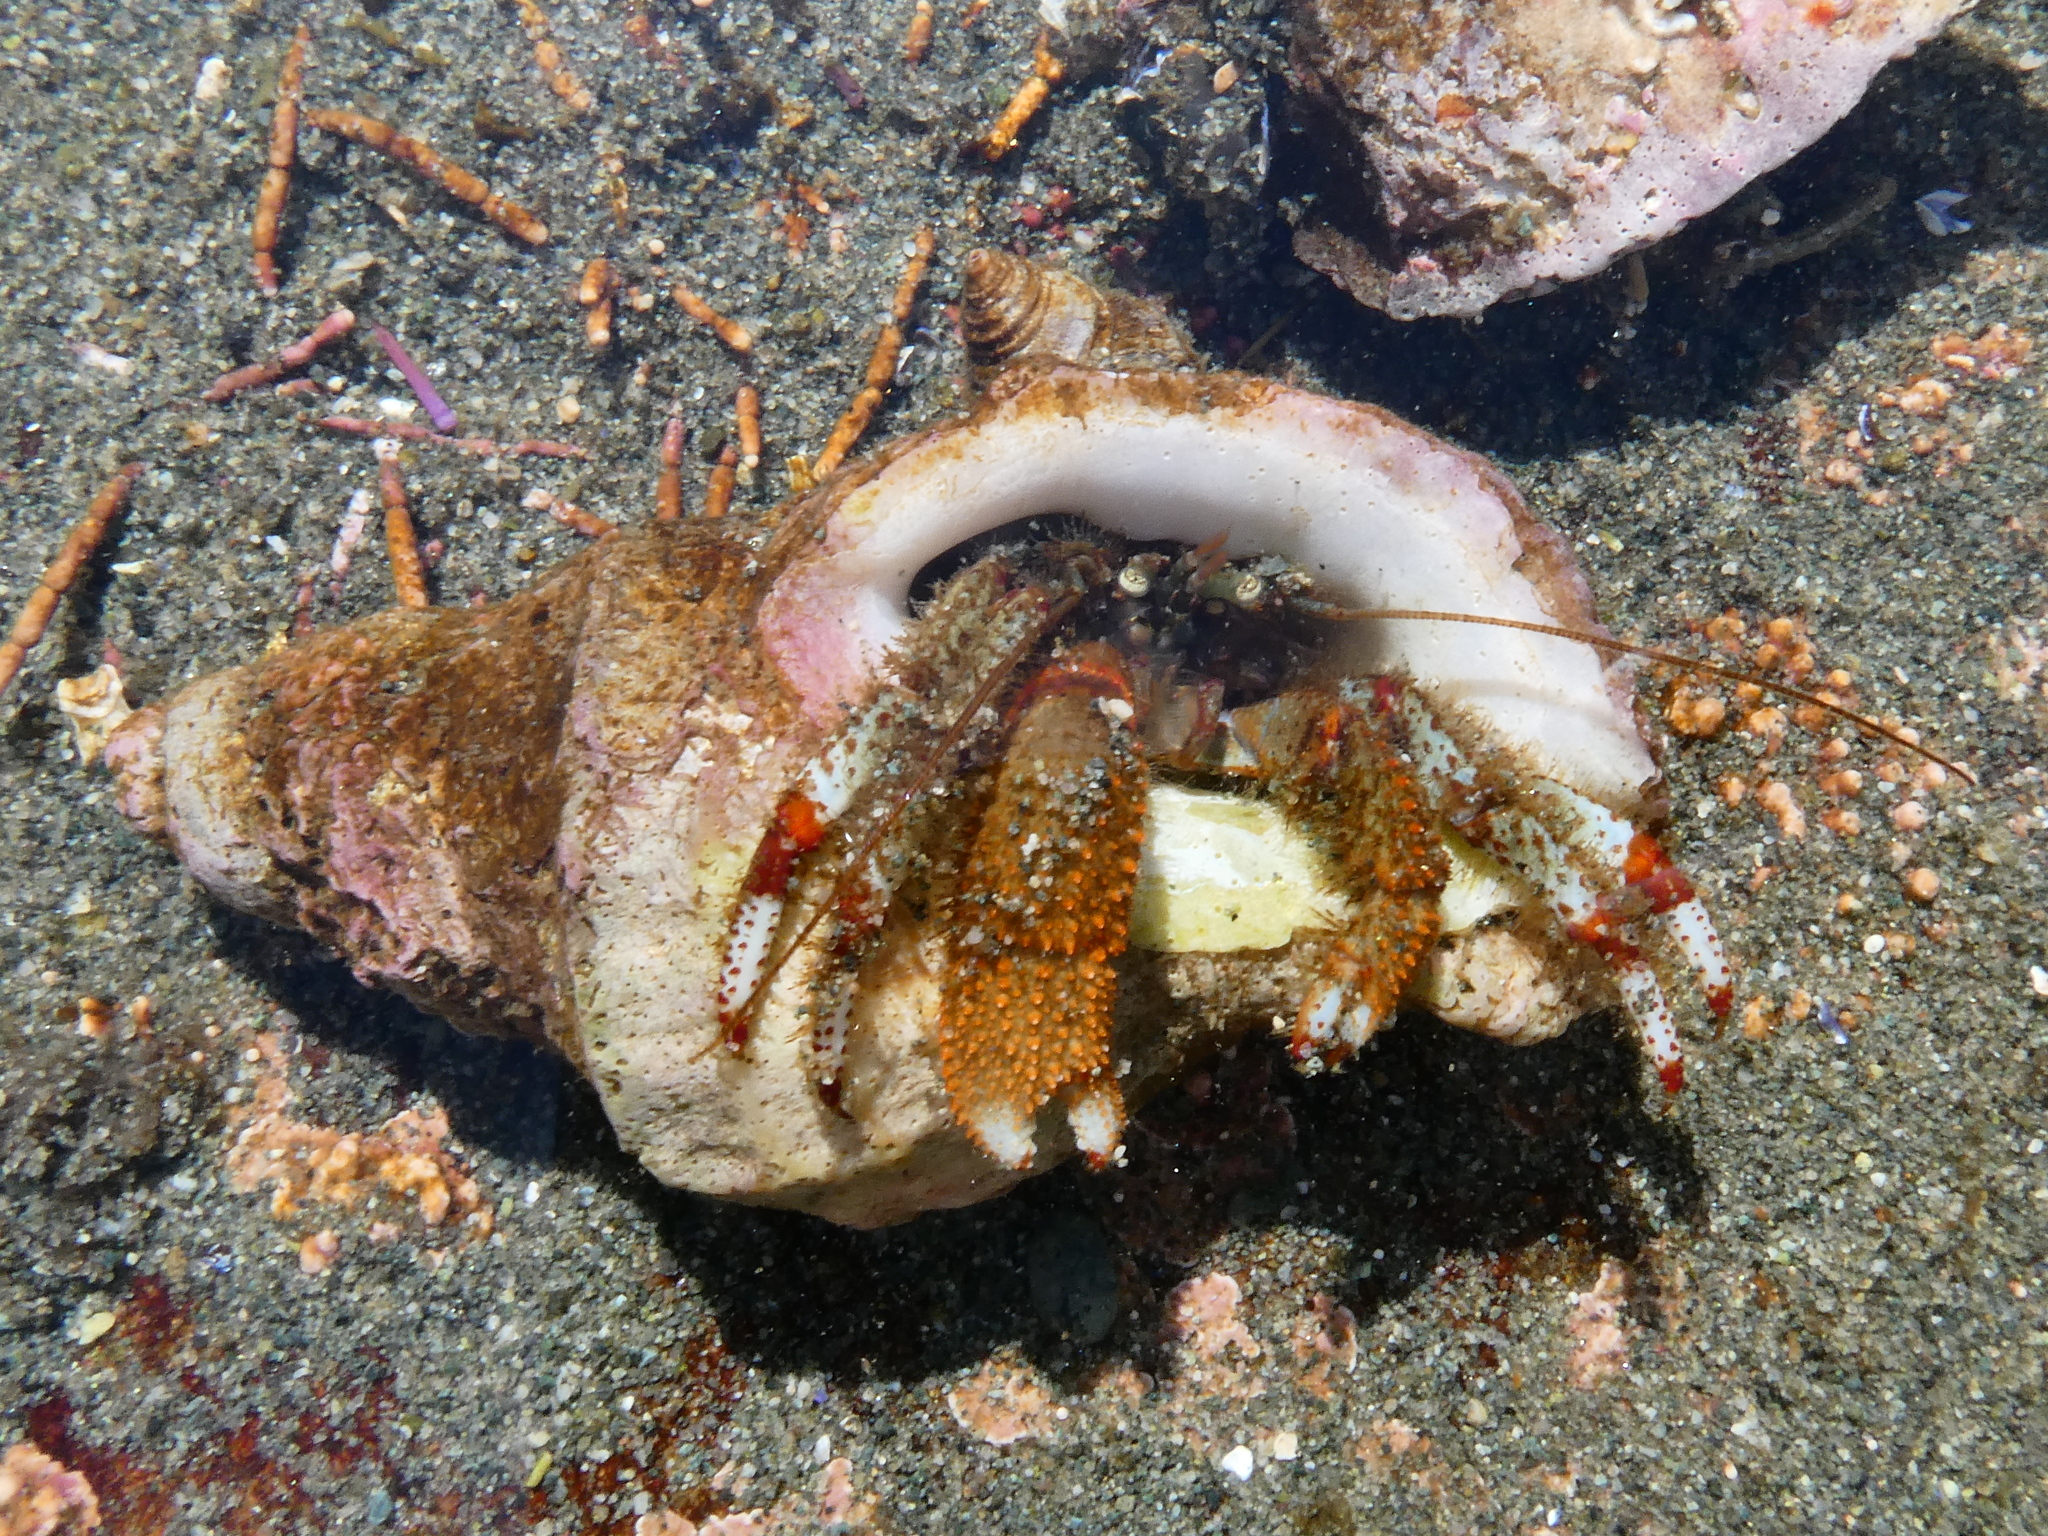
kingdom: Animalia
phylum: Arthropoda
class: Malacostraca
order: Decapoda
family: Paguridae
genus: Pagurus
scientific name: Pagurus beringanus
